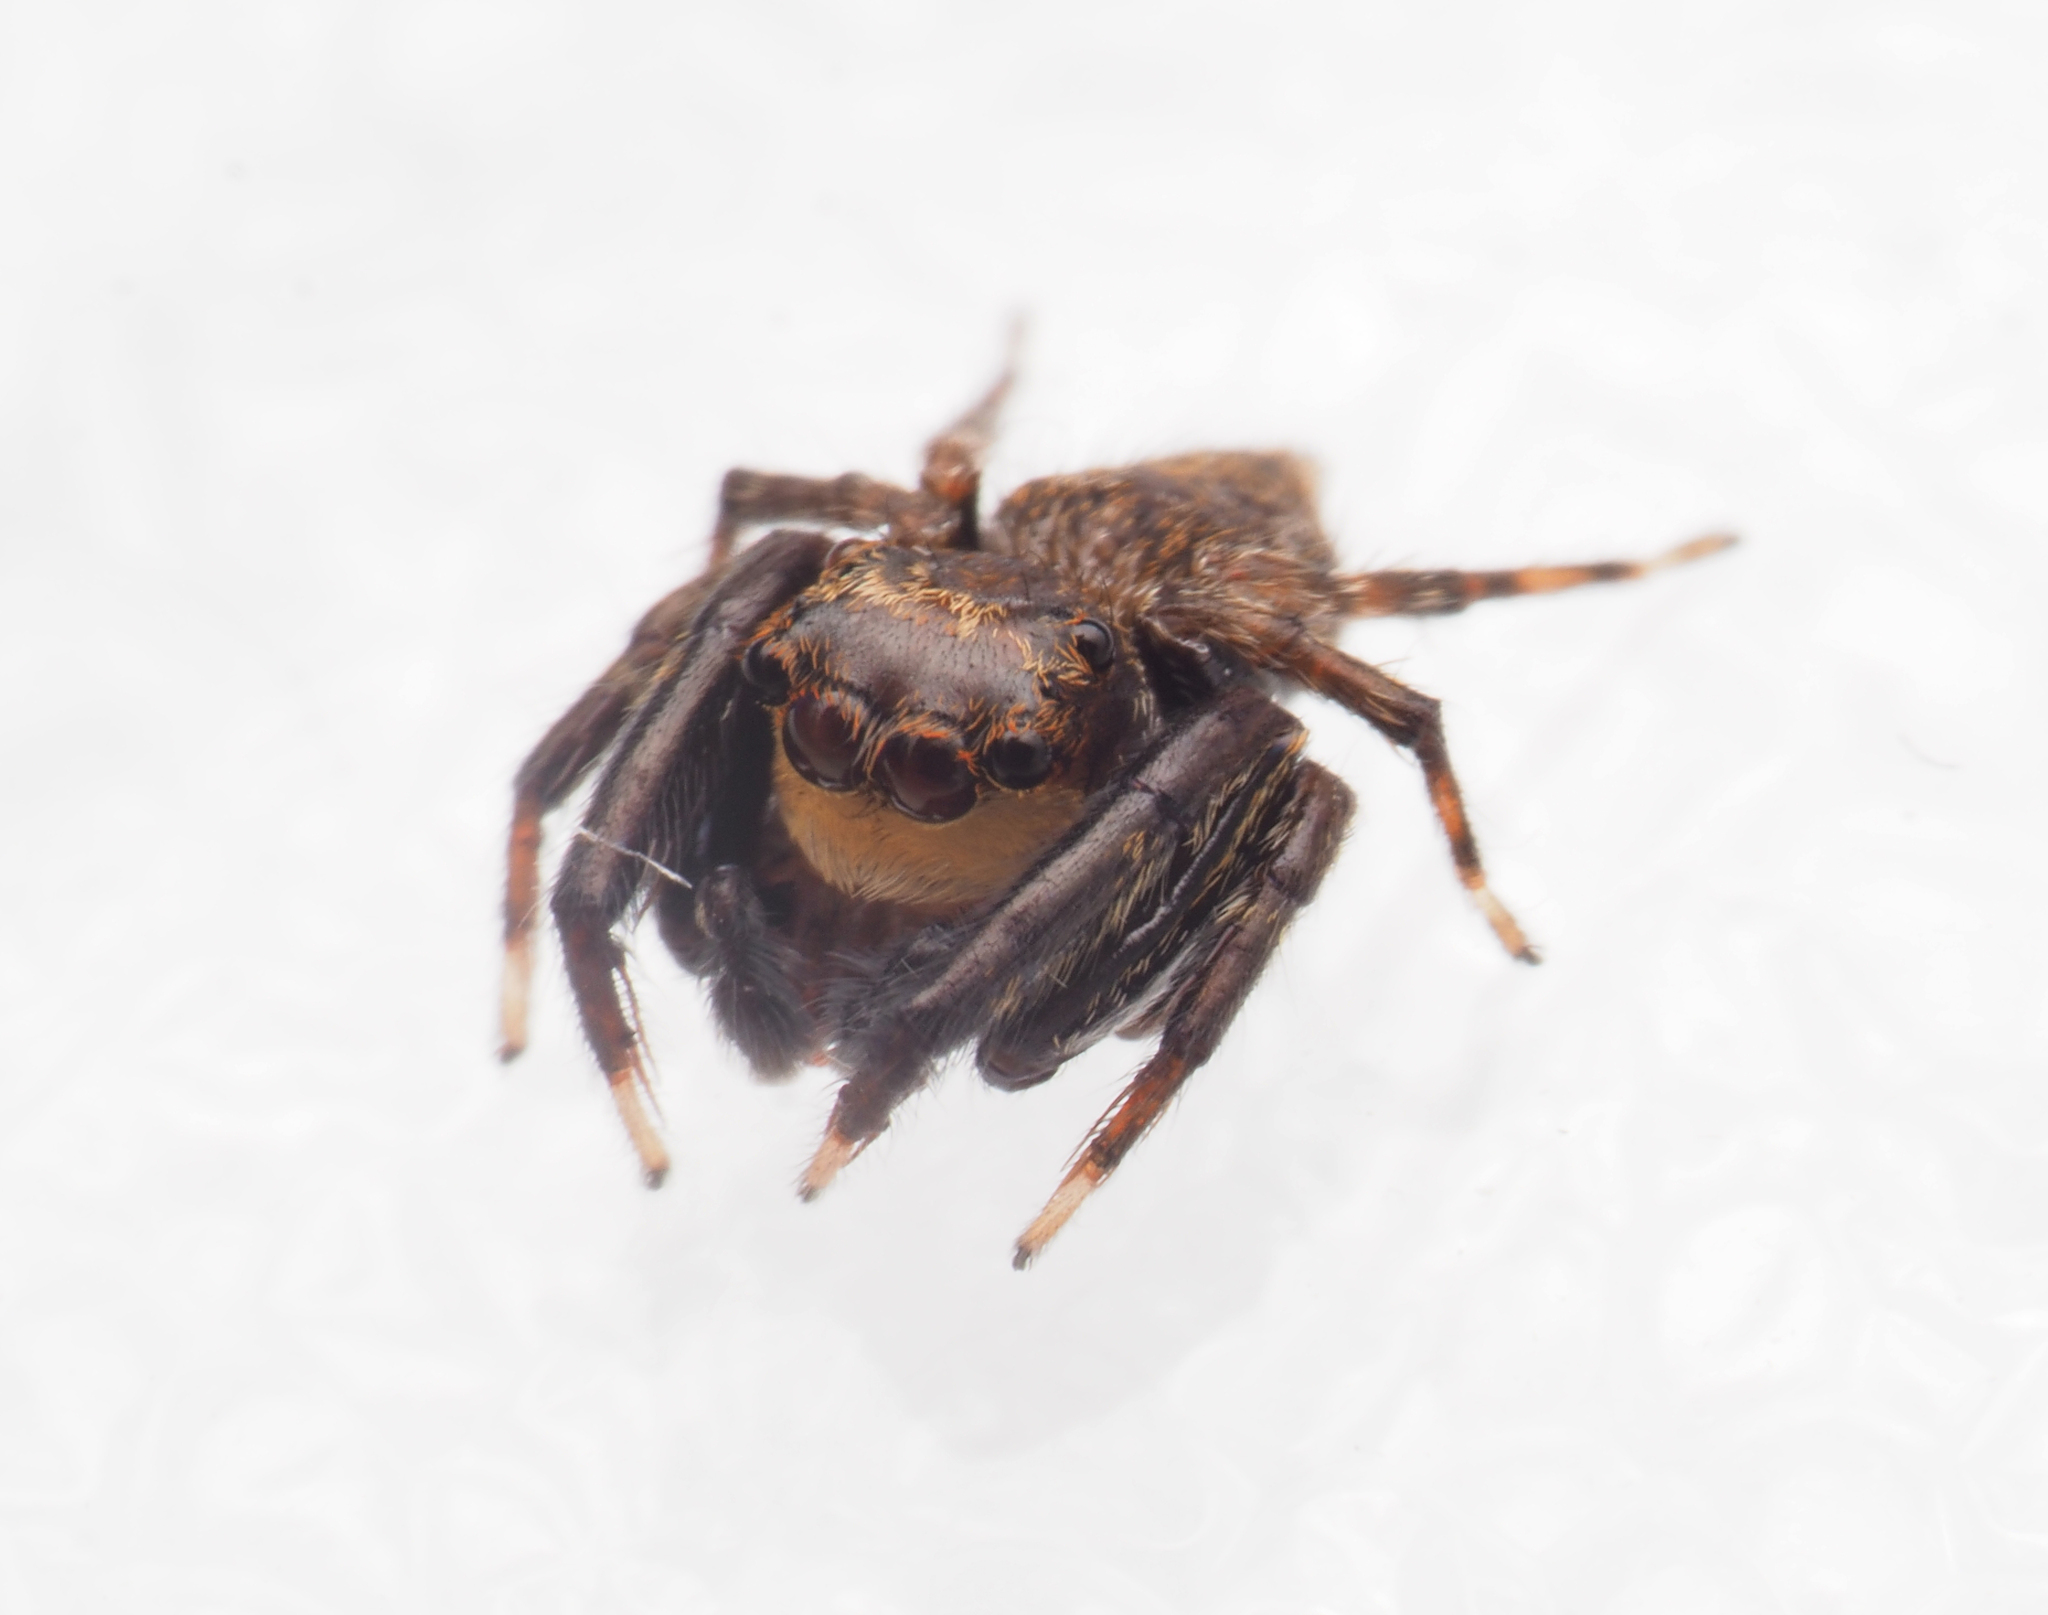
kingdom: Animalia
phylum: Arthropoda
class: Arachnida
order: Araneae
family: Salticidae
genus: Papuaneon
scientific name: Papuaneon
